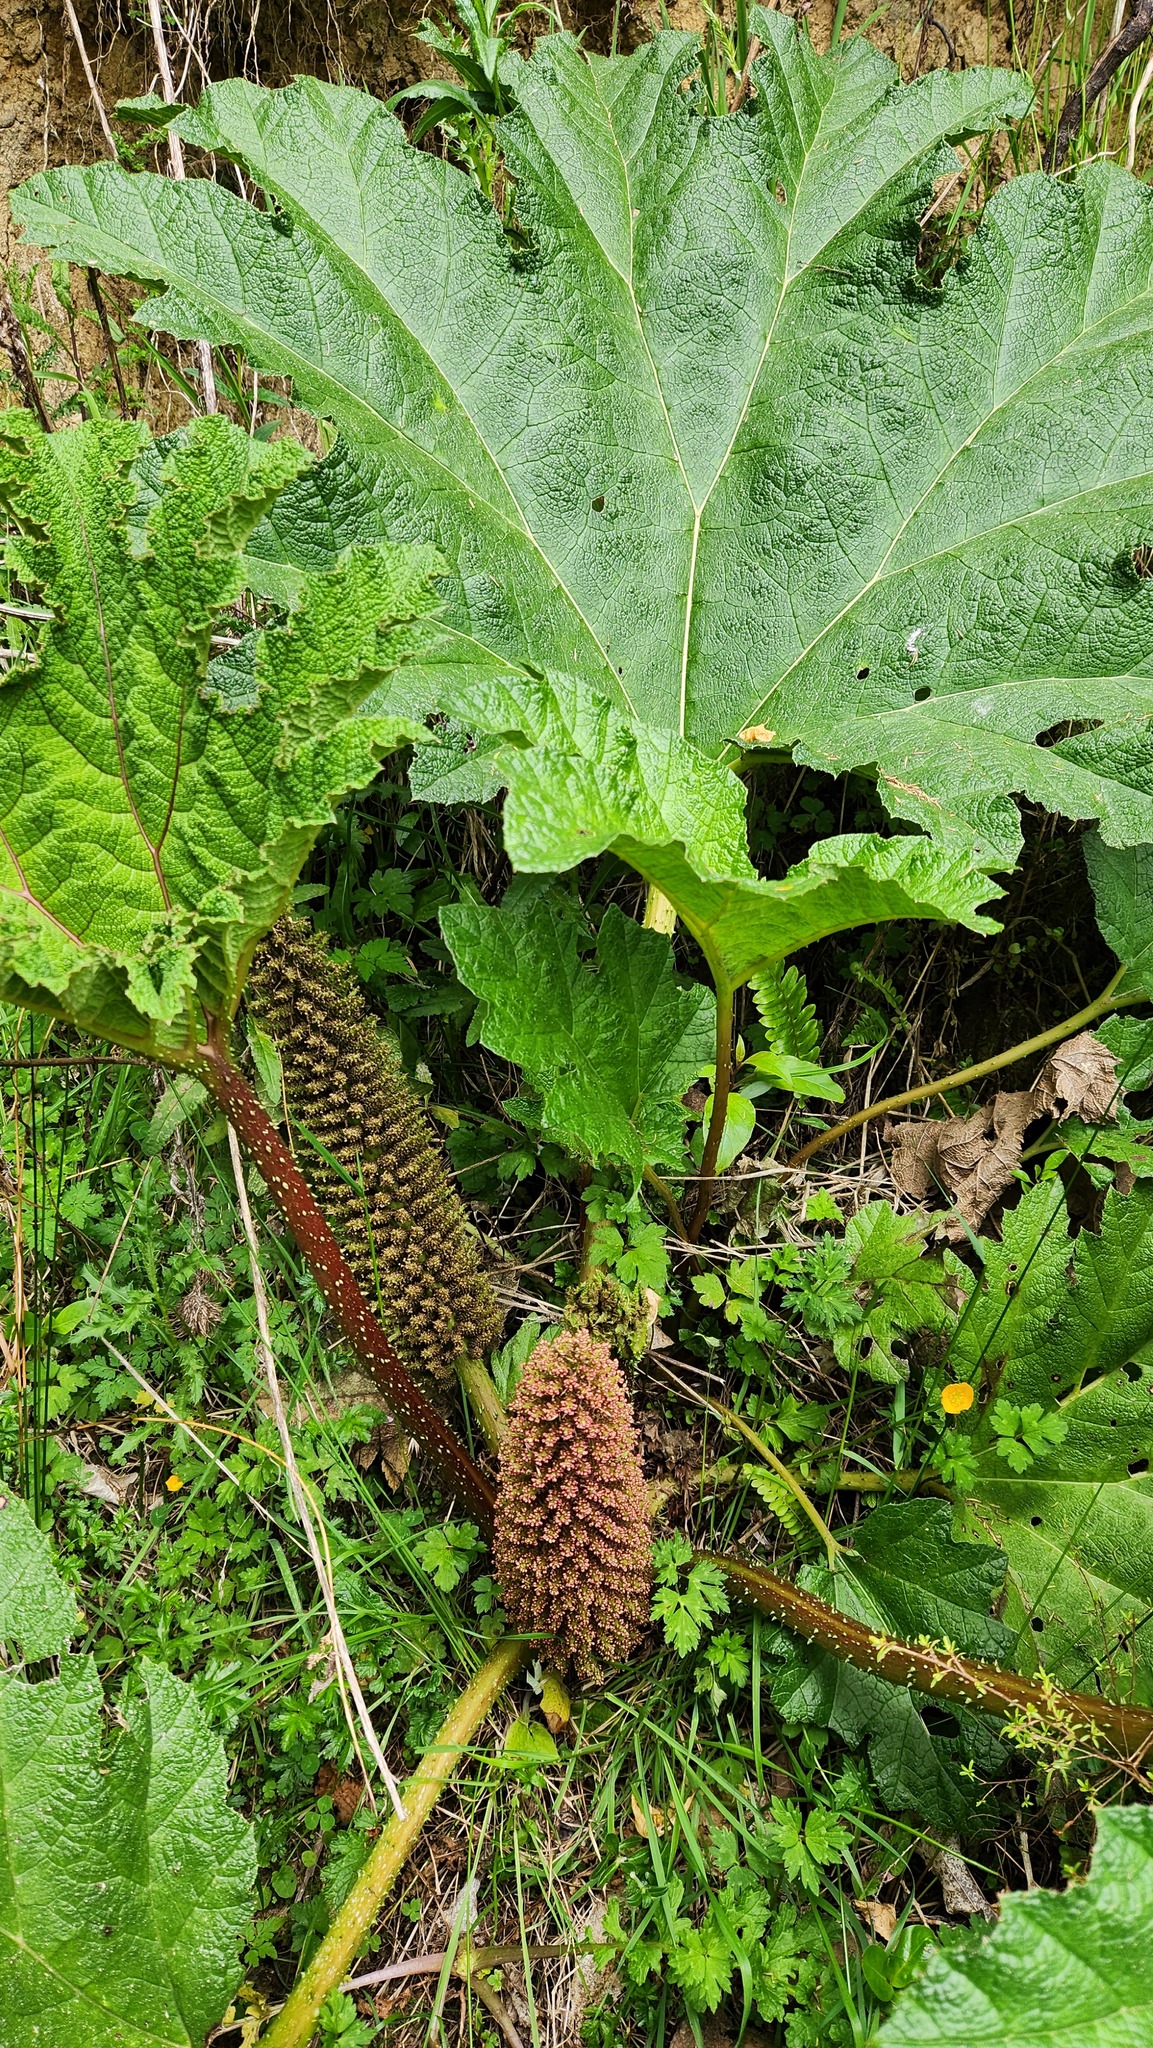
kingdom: Plantae
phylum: Tracheophyta
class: Magnoliopsida
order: Gunnerales
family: Gunneraceae
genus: Gunnera
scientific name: Gunnera tinctoria
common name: Giant-rhubarb
